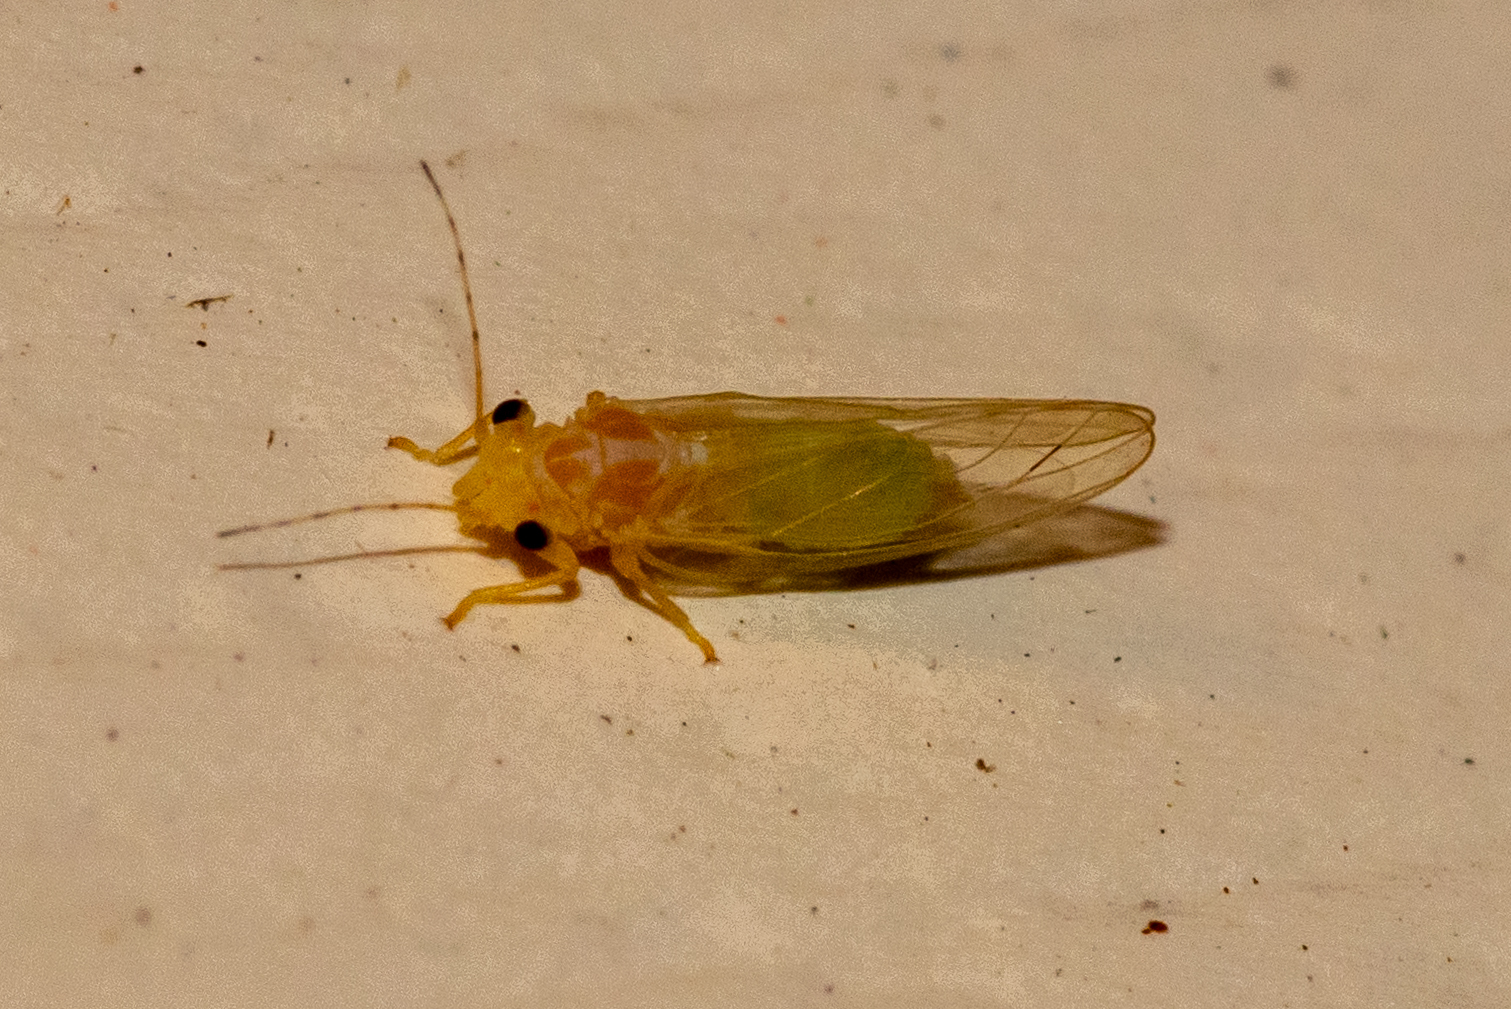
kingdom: Animalia
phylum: Arthropoda
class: Insecta
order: Hemiptera
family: Psyllidae
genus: Cacopsylla
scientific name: Cacopsylla annulata
